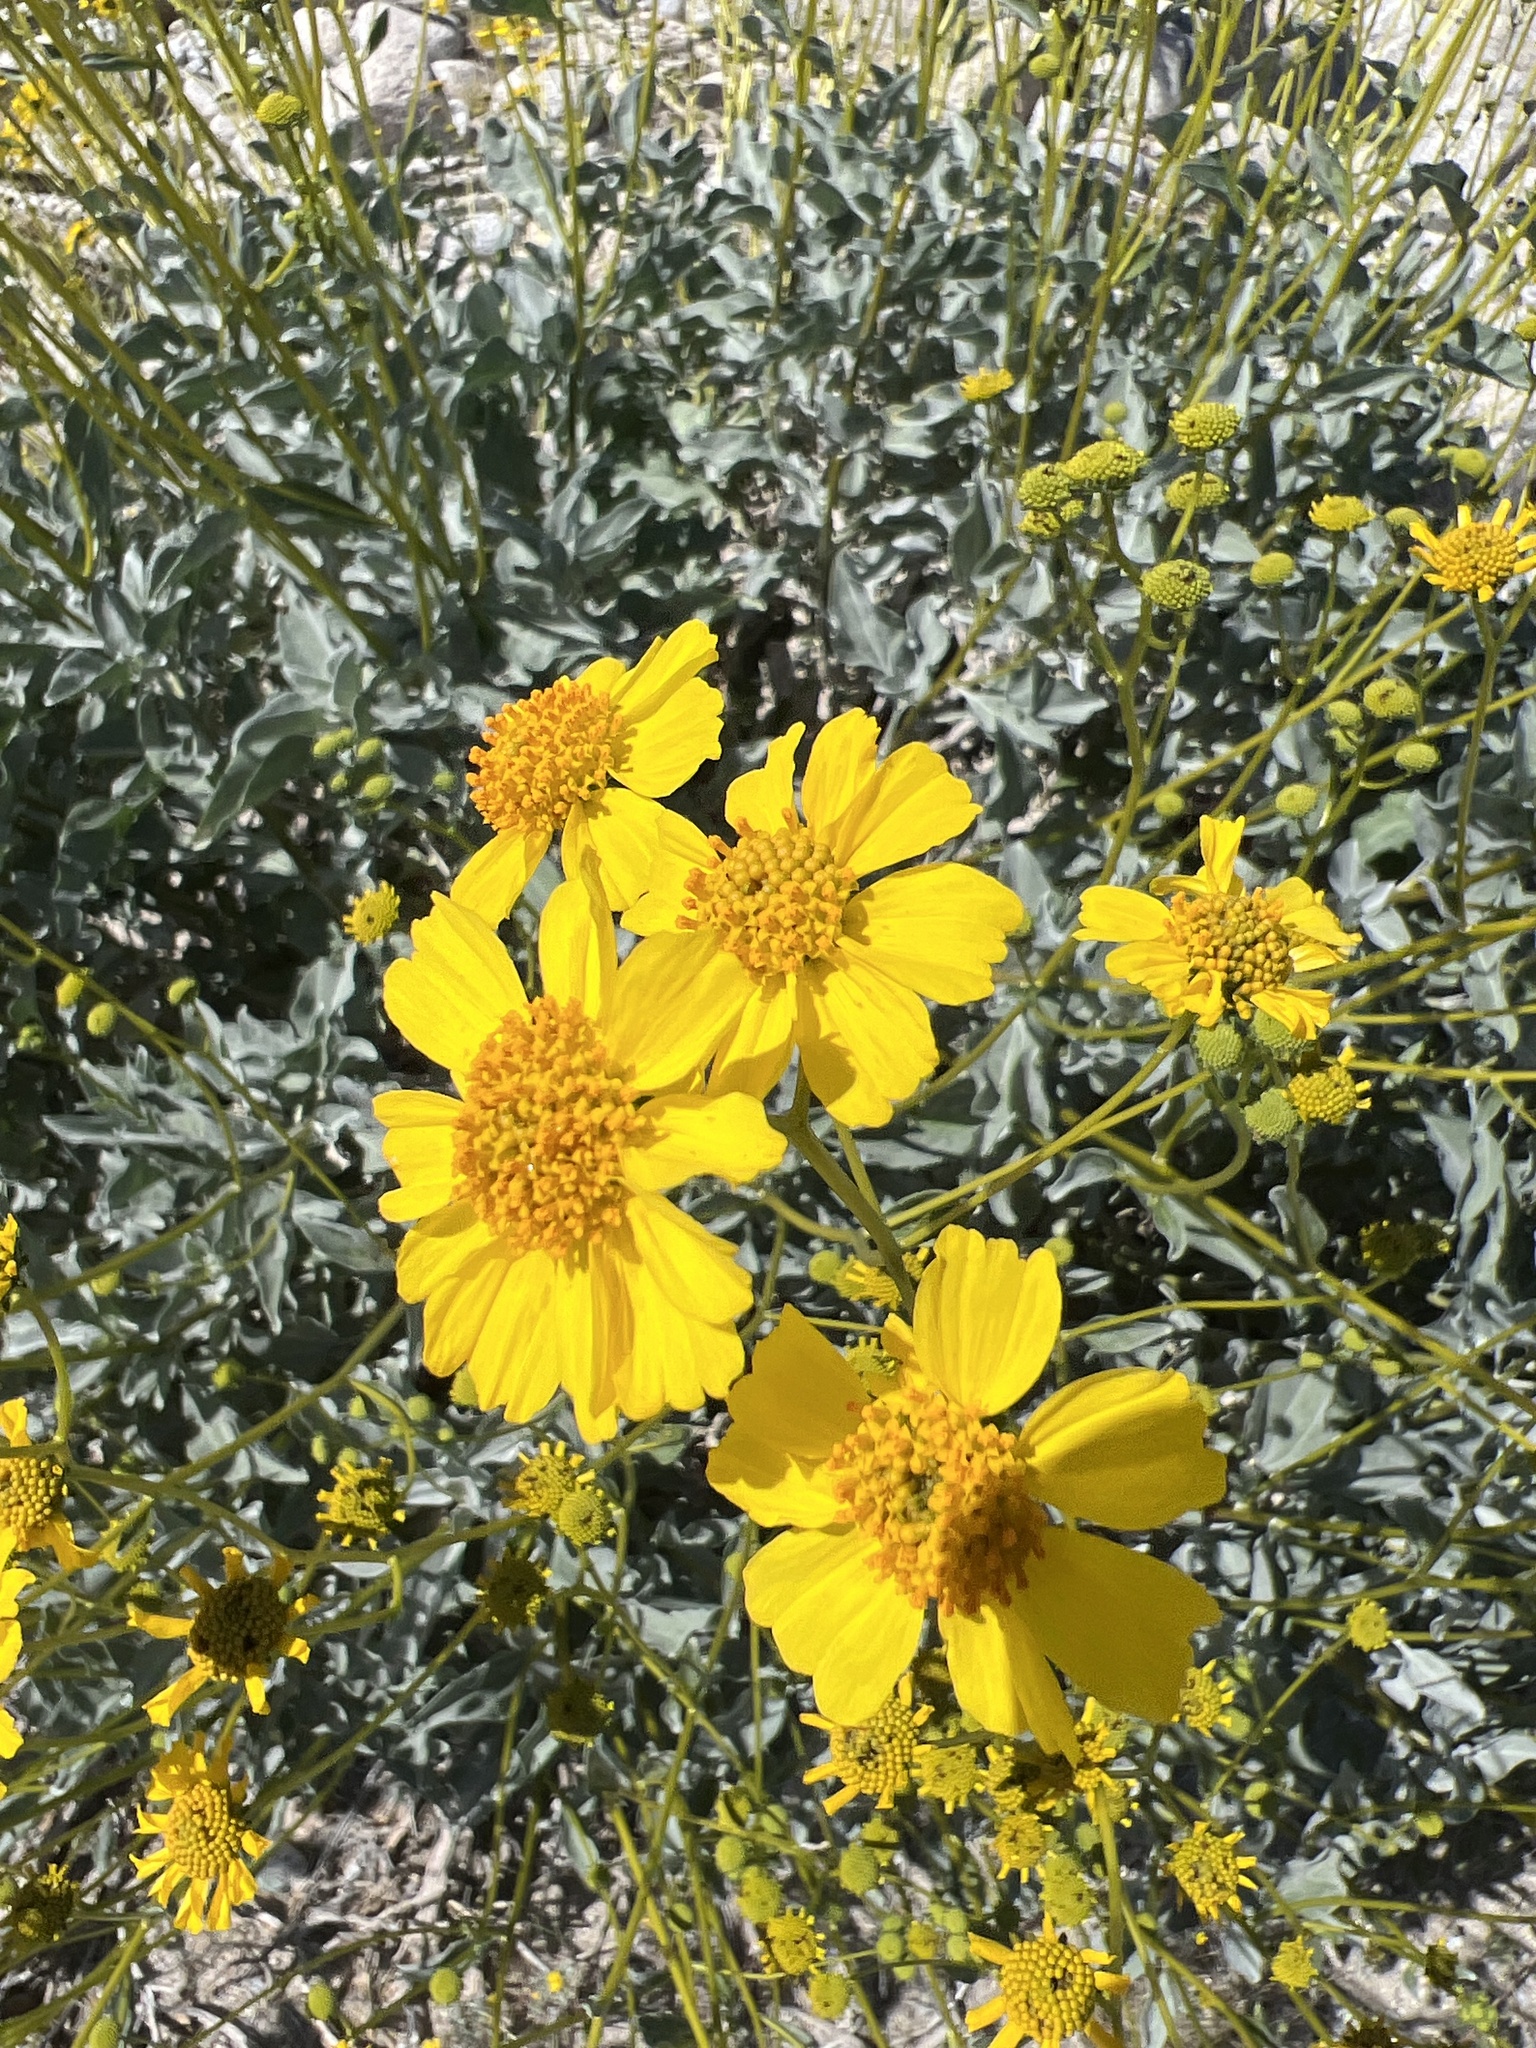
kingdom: Plantae
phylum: Tracheophyta
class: Magnoliopsida
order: Asterales
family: Asteraceae
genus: Encelia
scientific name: Encelia farinosa
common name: Brittlebush
